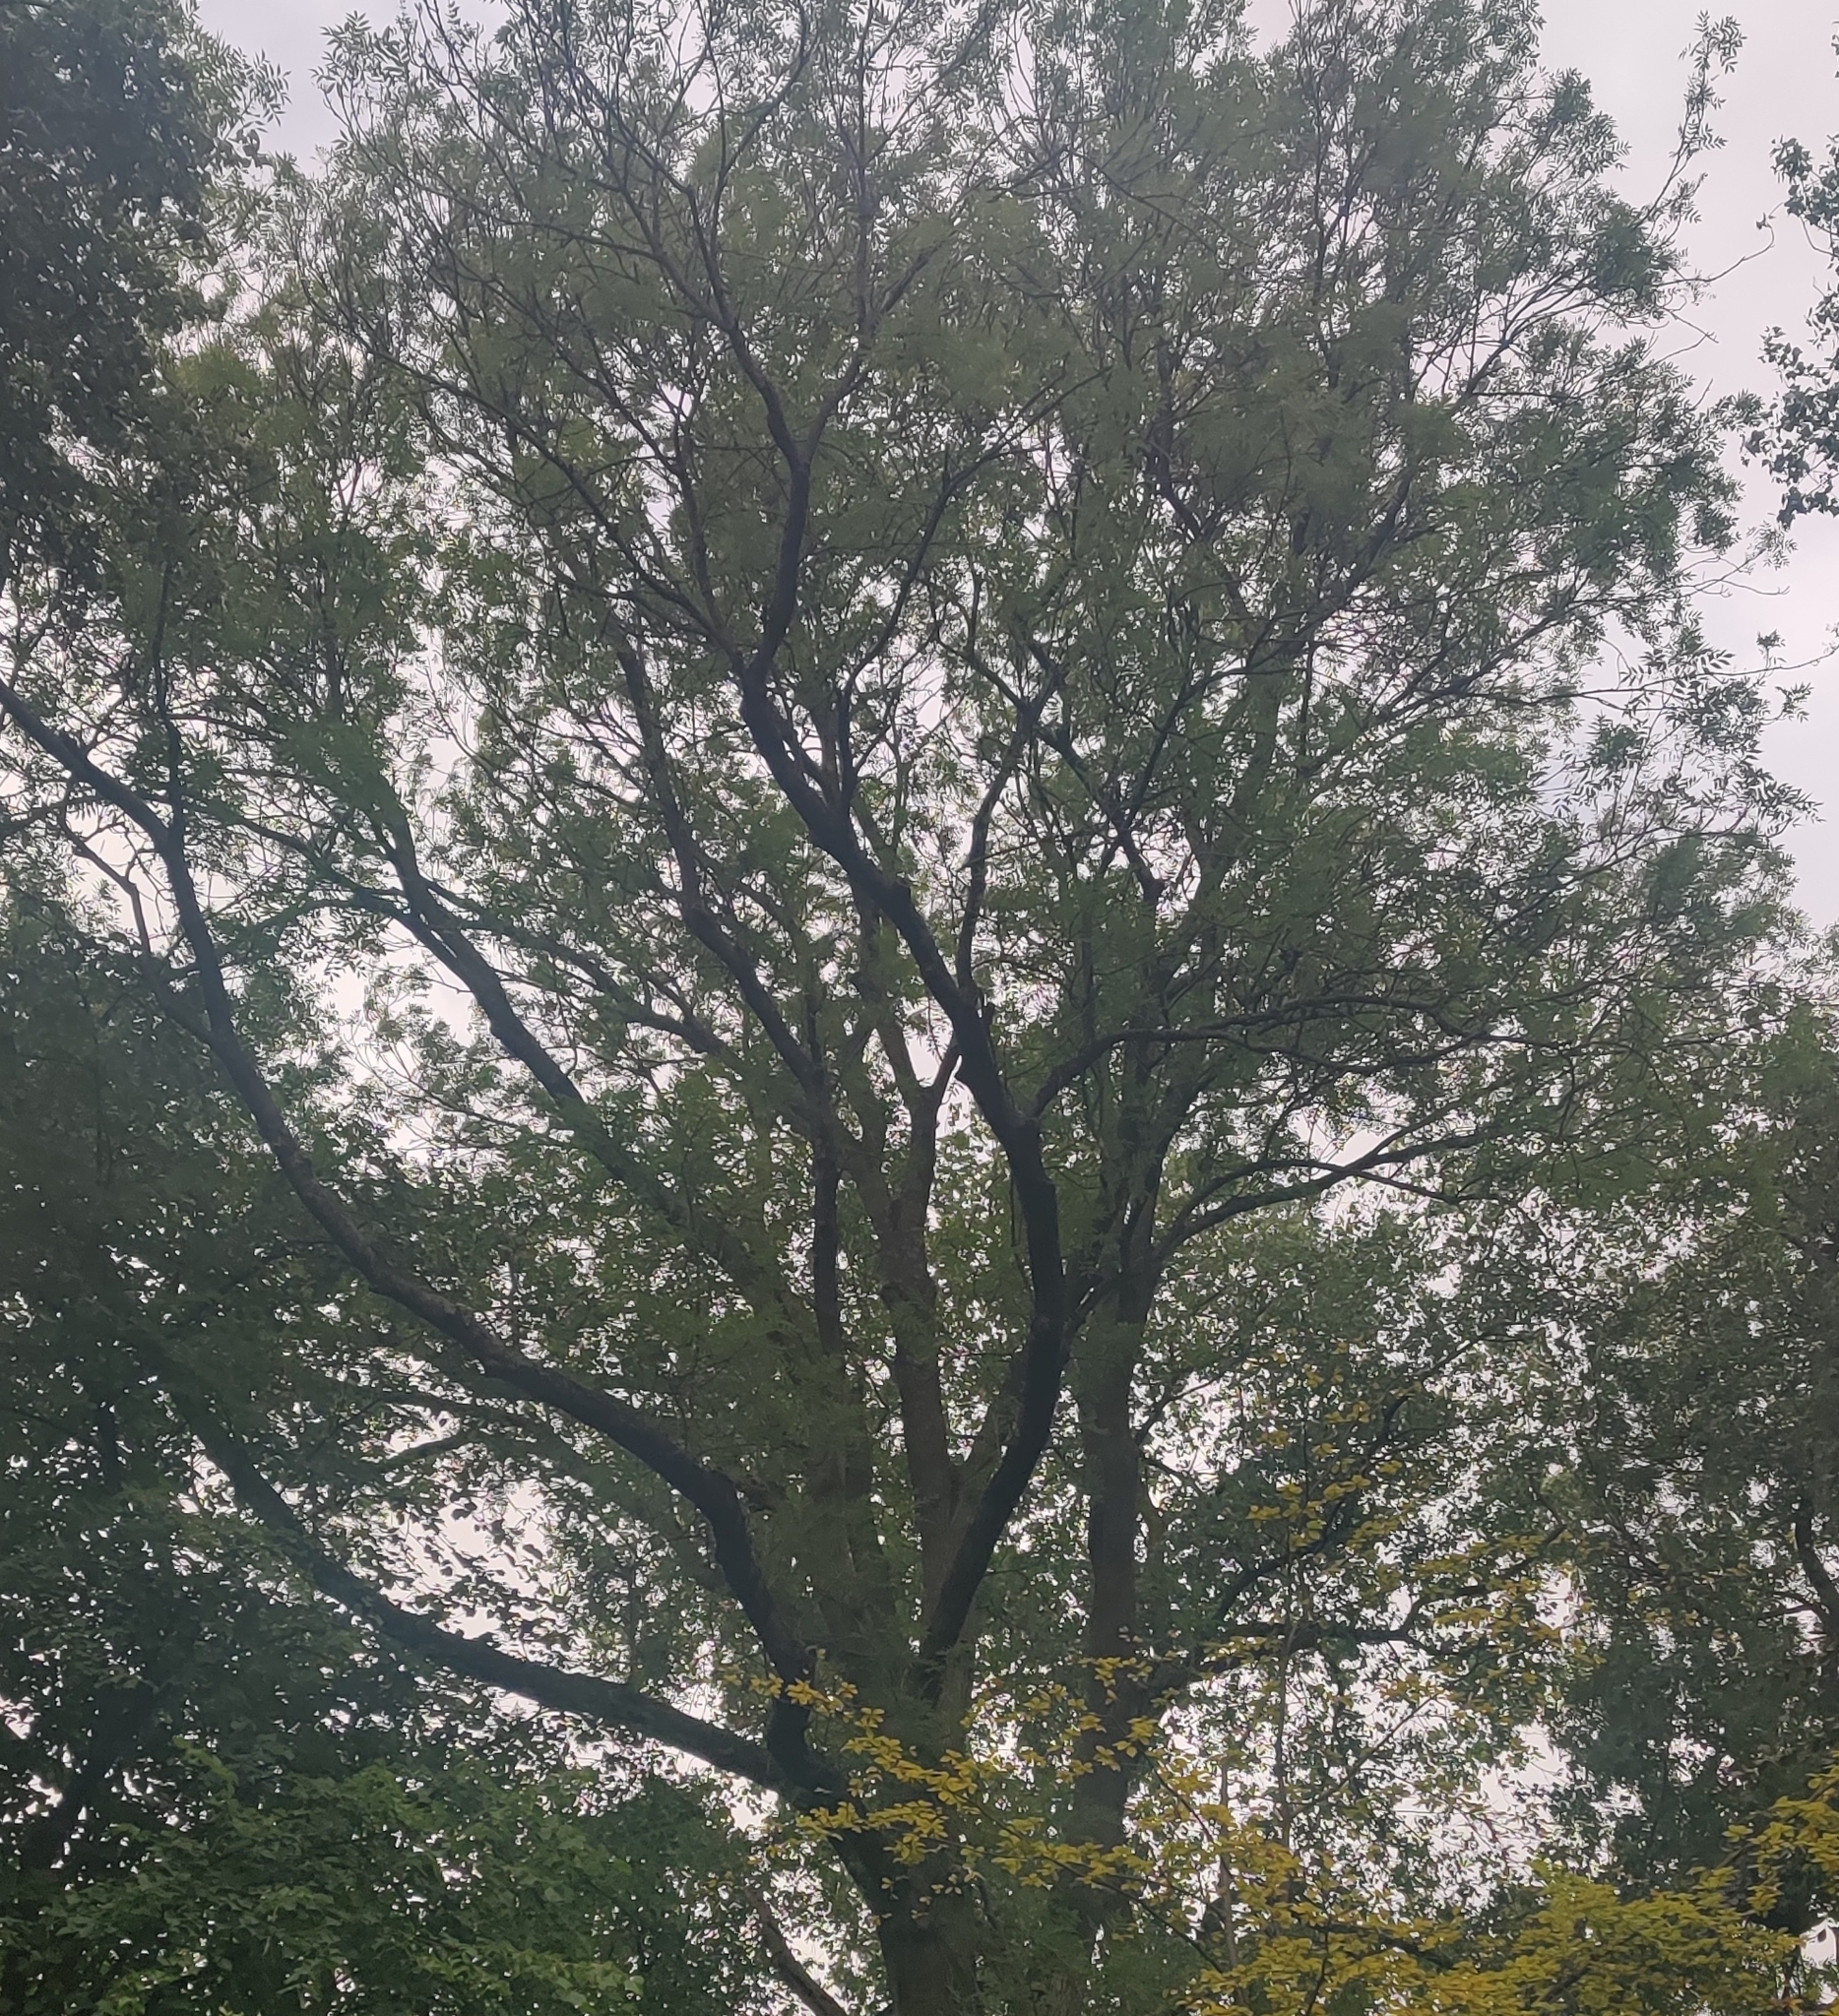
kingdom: Plantae
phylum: Tracheophyta
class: Magnoliopsida
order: Lamiales
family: Oleaceae
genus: Fraxinus
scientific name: Fraxinus excelsior
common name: European ash
